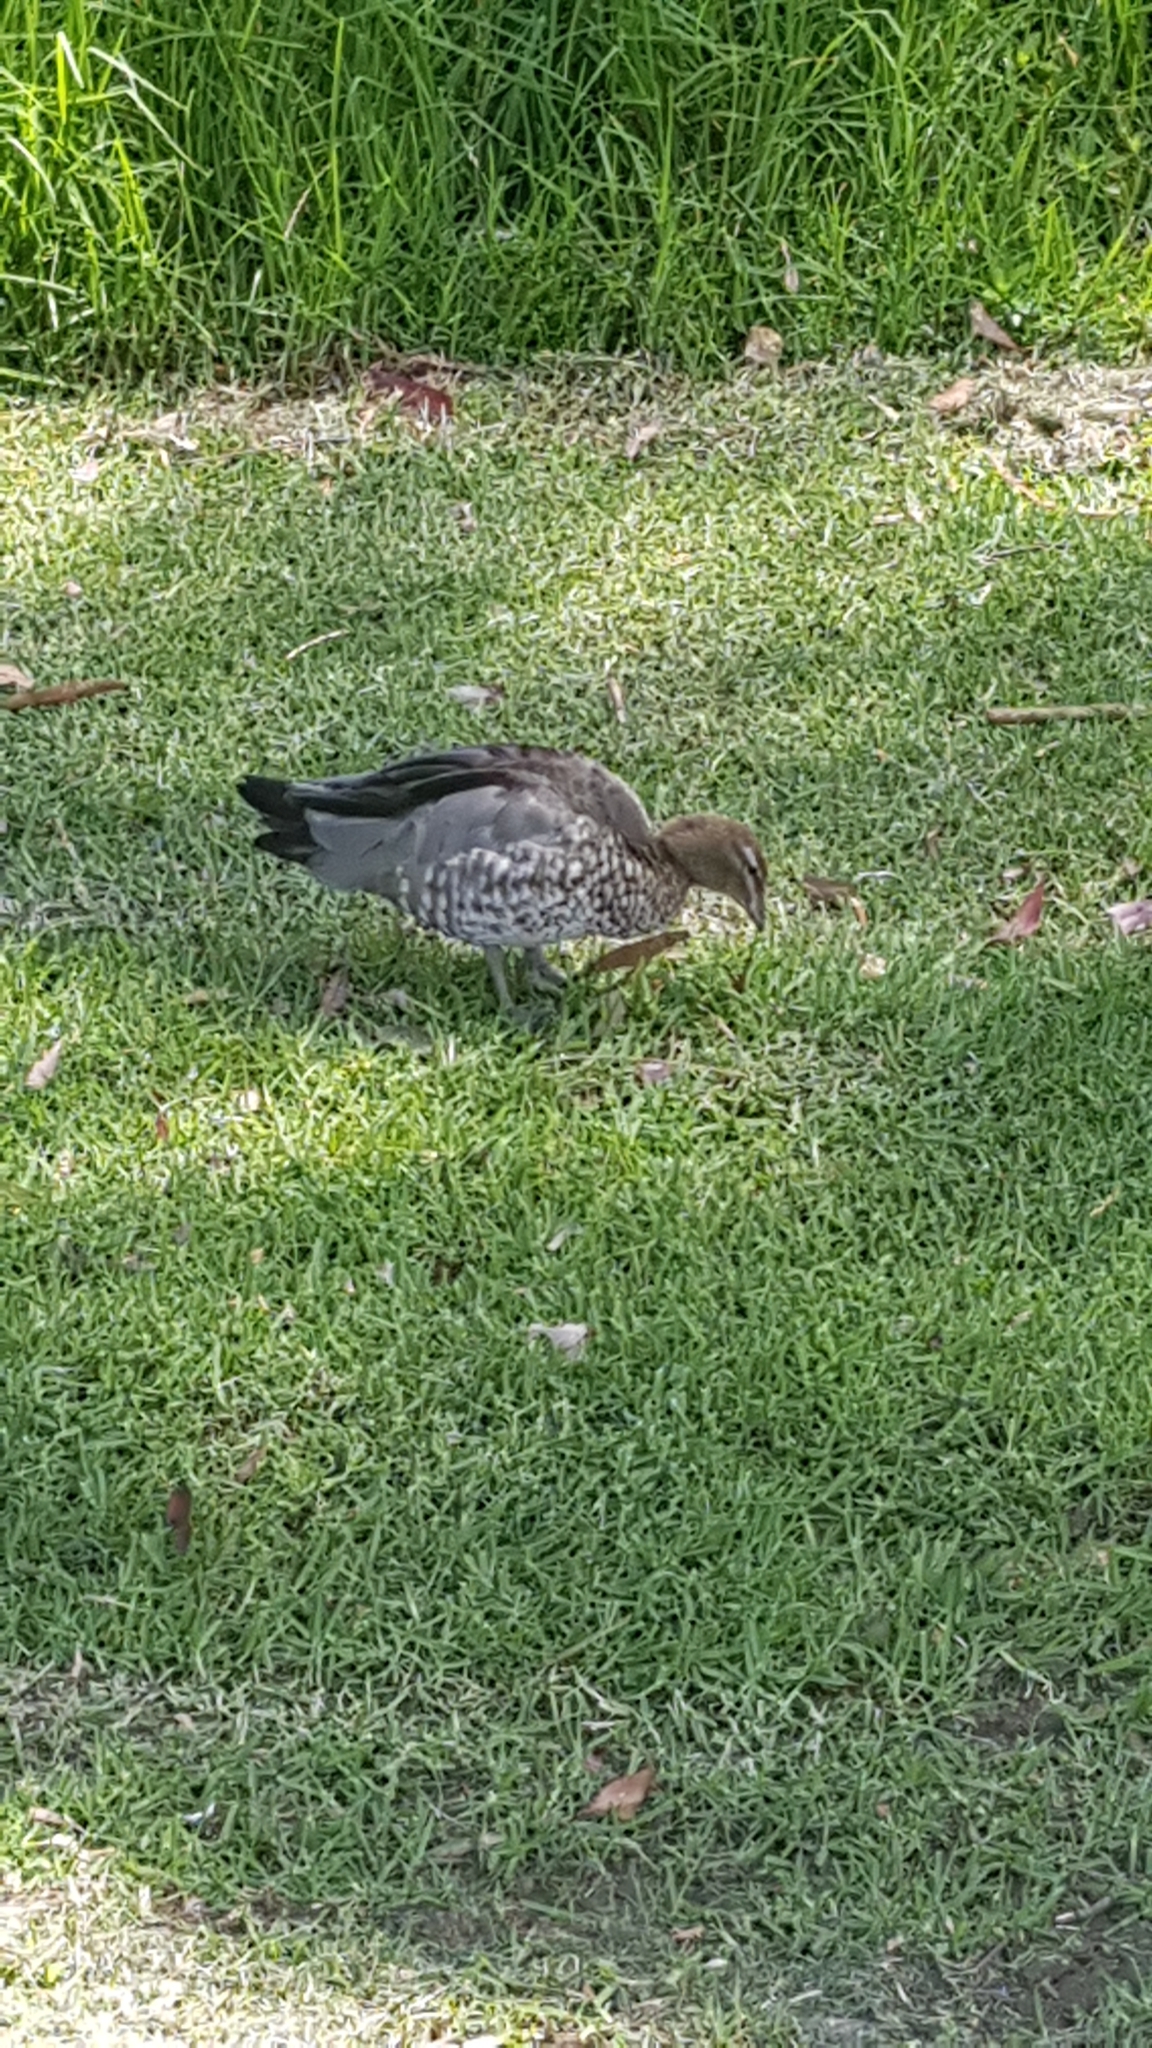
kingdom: Animalia
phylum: Chordata
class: Aves
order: Anseriformes
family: Anatidae
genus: Chenonetta
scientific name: Chenonetta jubata
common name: Maned duck
